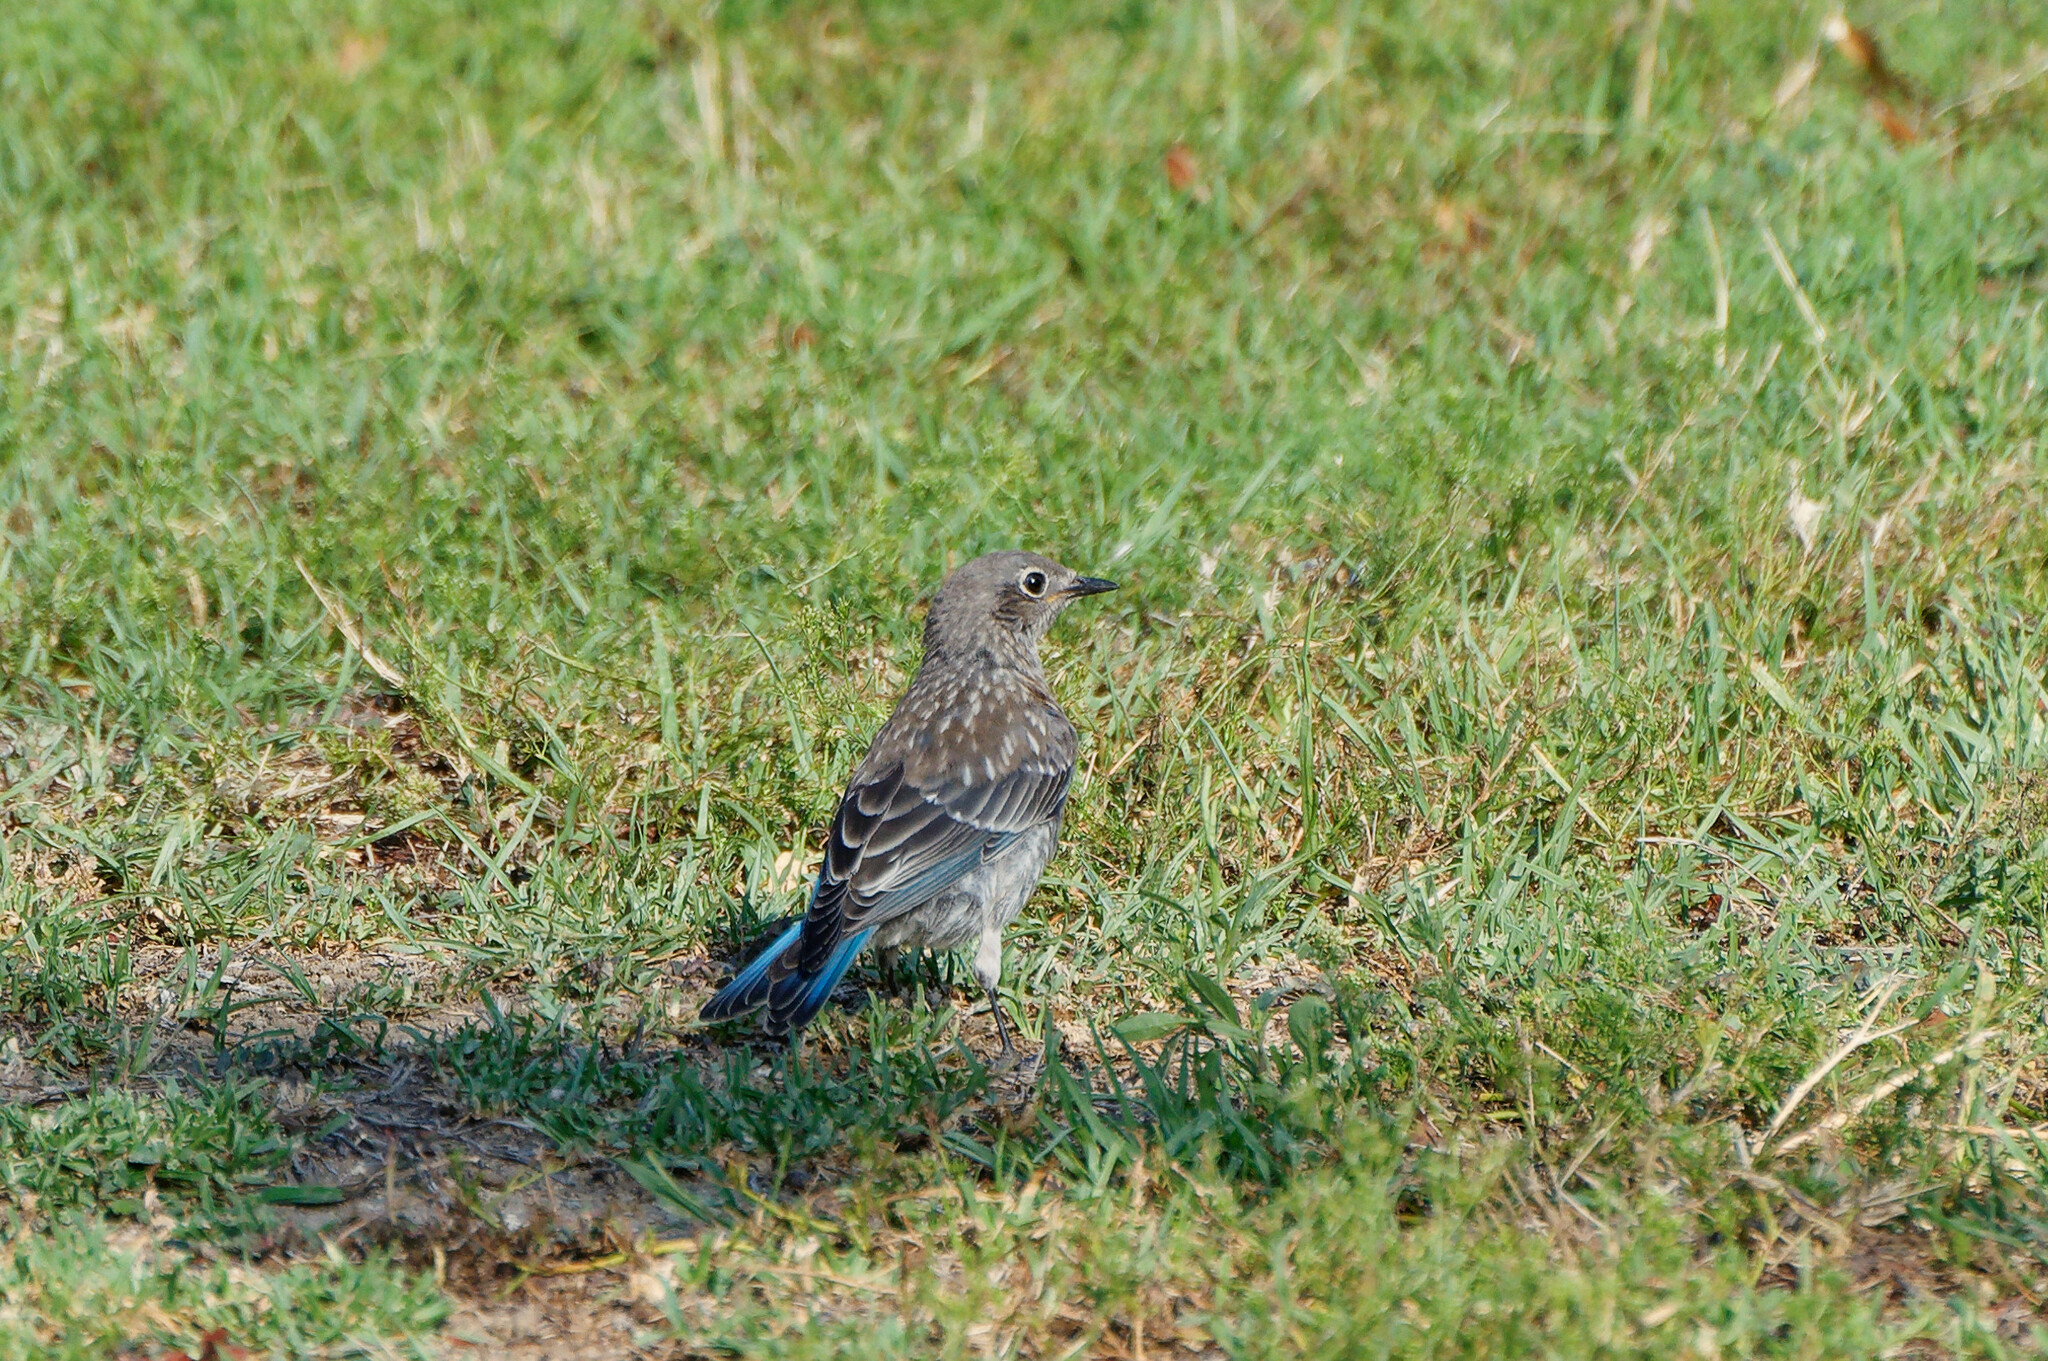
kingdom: Animalia
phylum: Chordata
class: Aves
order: Passeriformes
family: Turdidae
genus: Sialia
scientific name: Sialia mexicana
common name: Western bluebird
